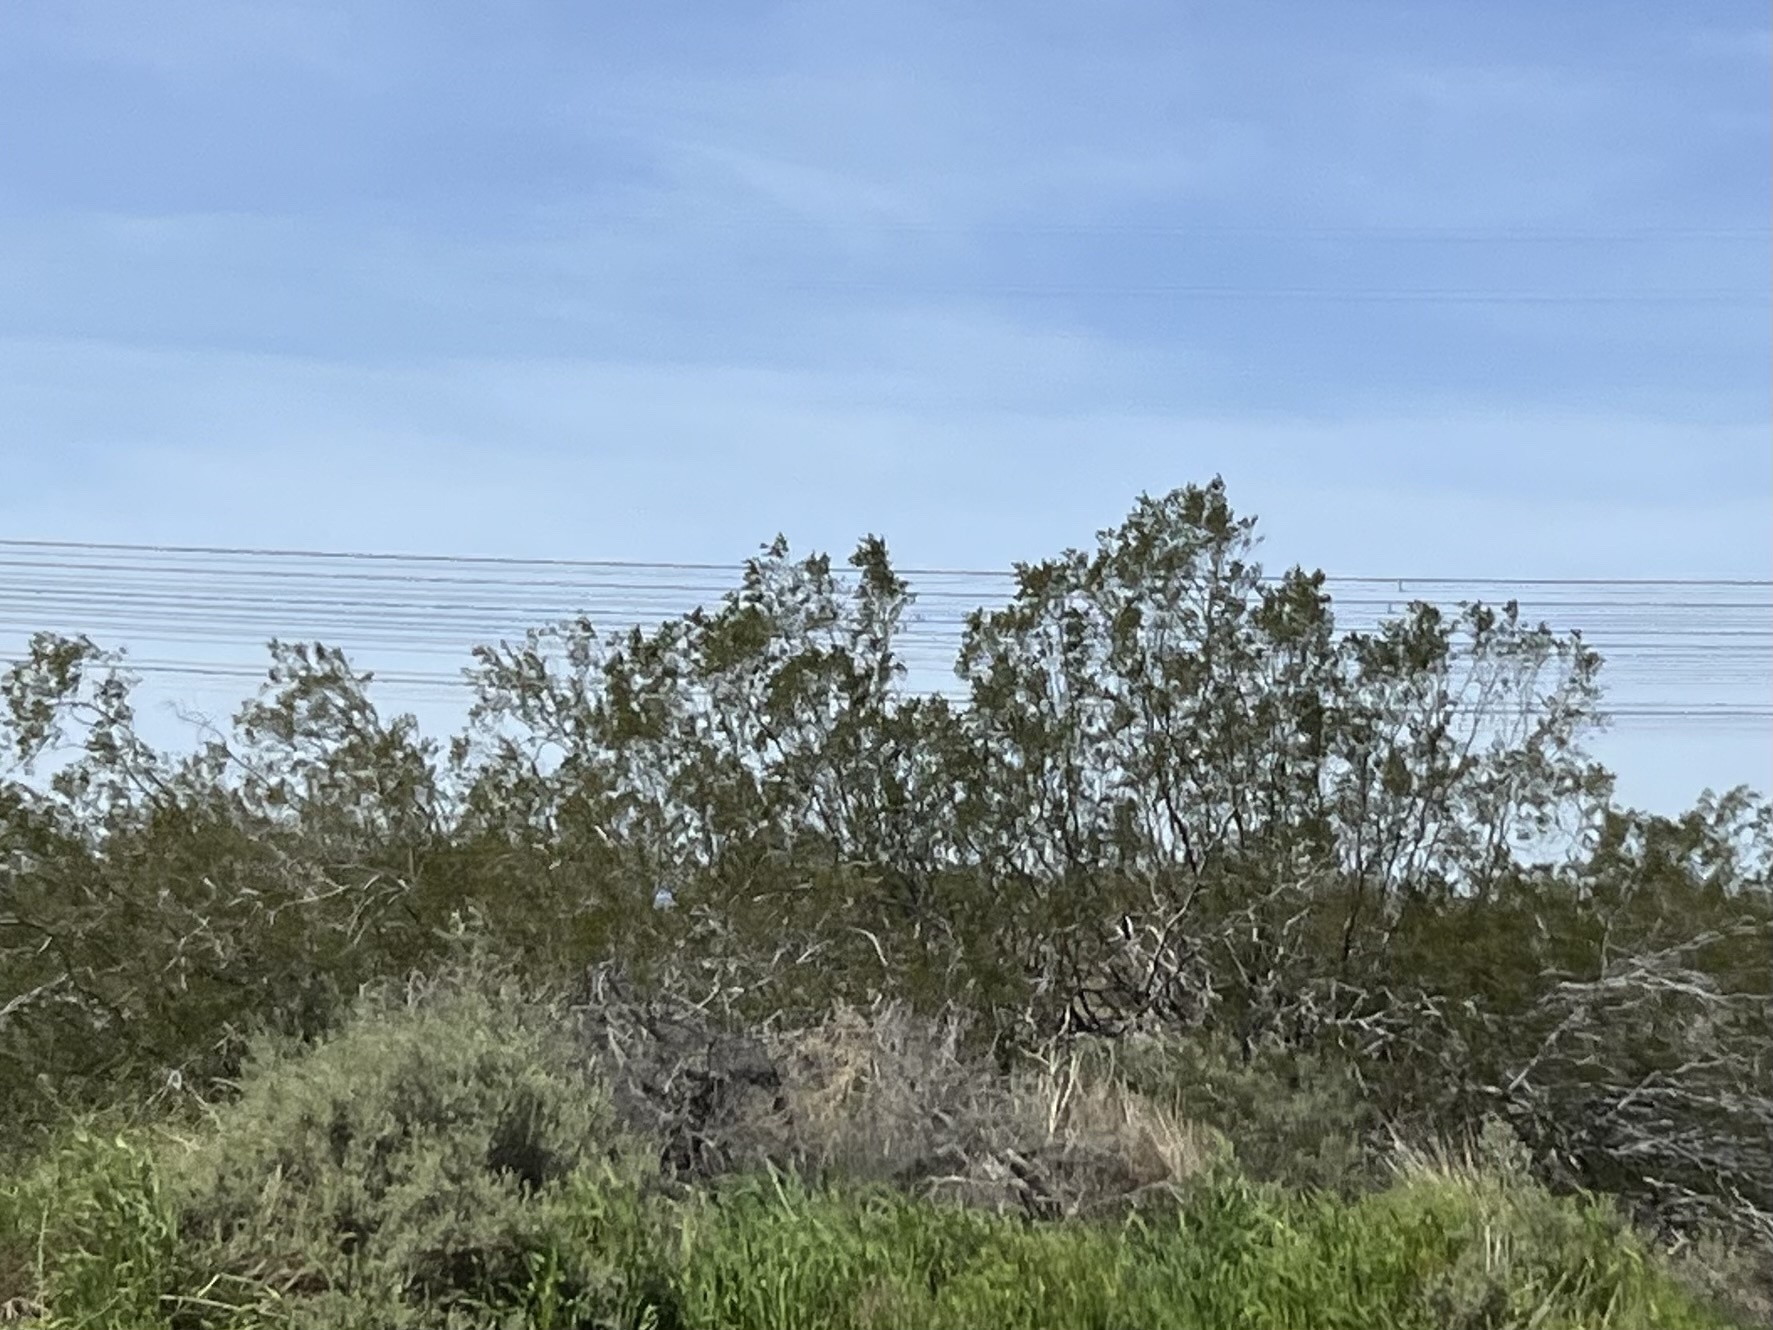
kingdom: Plantae
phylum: Tracheophyta
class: Magnoliopsida
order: Zygophyllales
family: Zygophyllaceae
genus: Larrea
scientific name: Larrea tridentata
